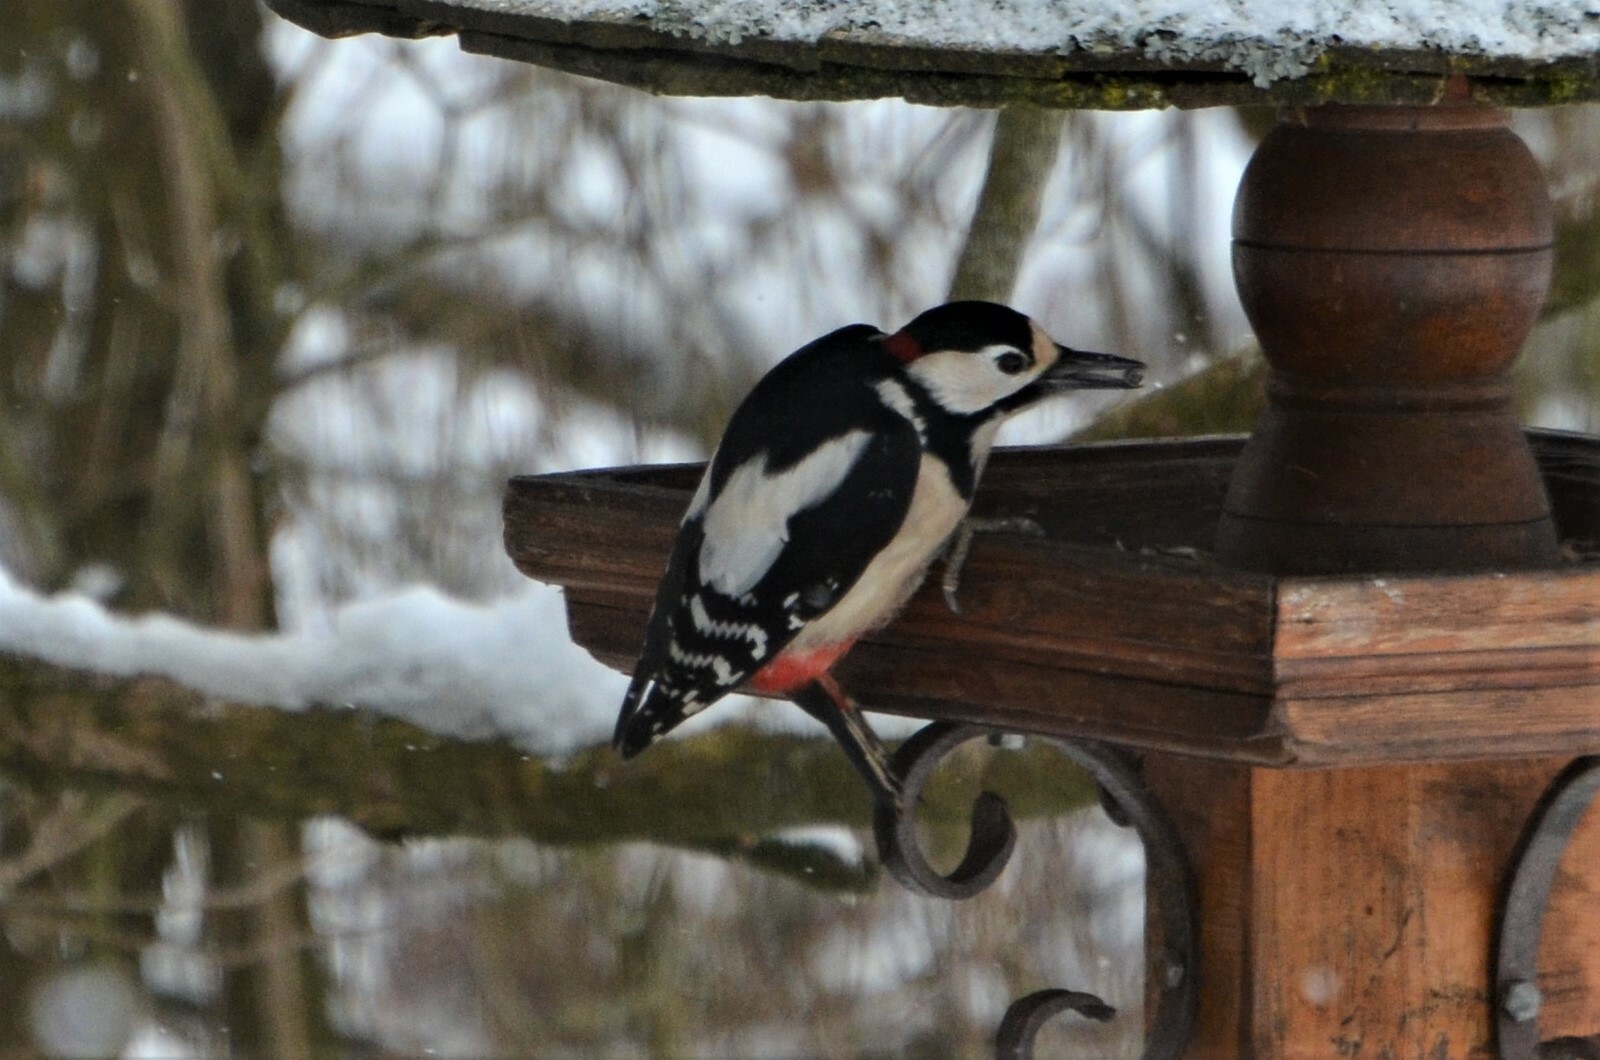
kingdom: Animalia
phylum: Chordata
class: Aves
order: Piciformes
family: Picidae
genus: Dendrocopos
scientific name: Dendrocopos major
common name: Great spotted woodpecker
